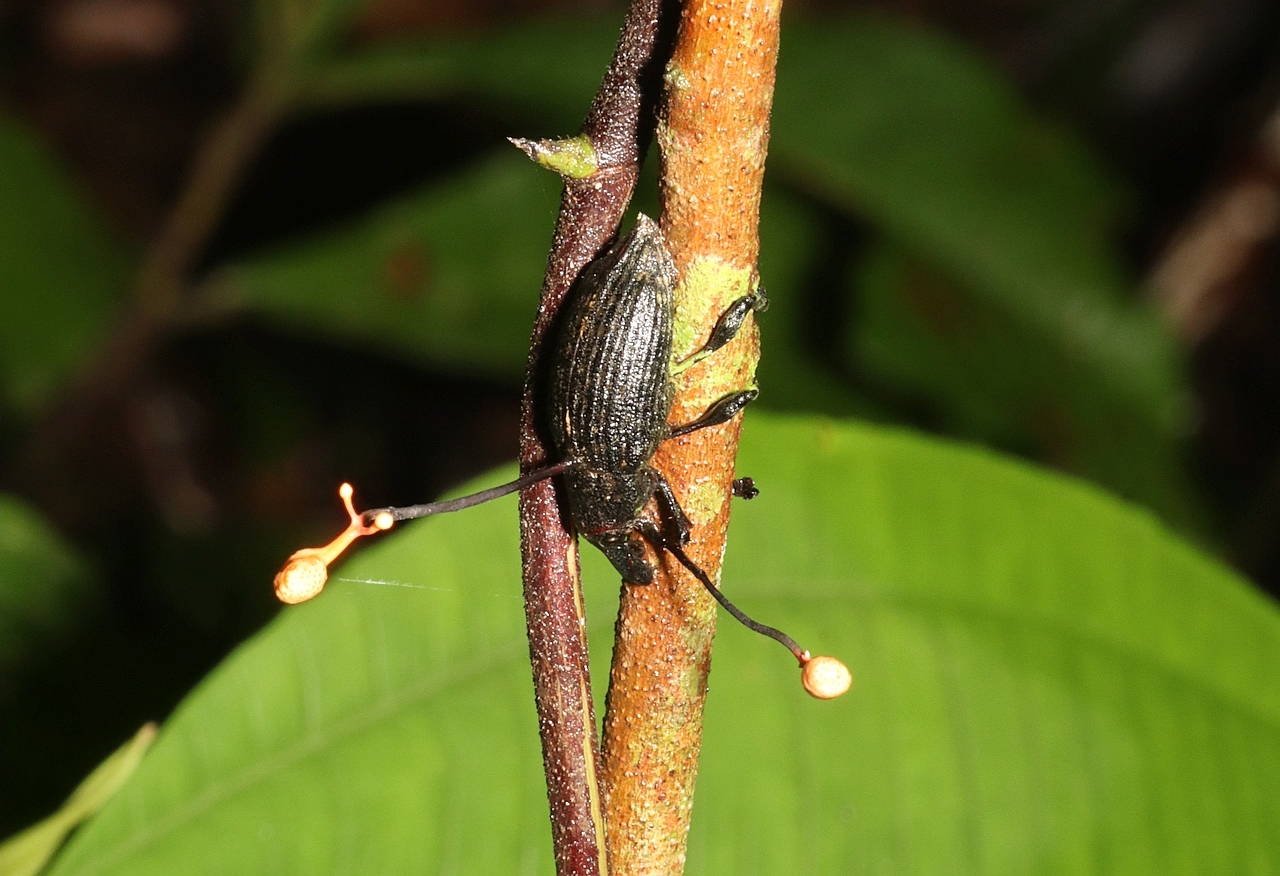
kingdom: Fungi
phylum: Ascomycota
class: Sordariomycetes
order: Hypocreales
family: Ophiocordycipitaceae
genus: Ophiocordyceps
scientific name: Ophiocordyceps curculionum
